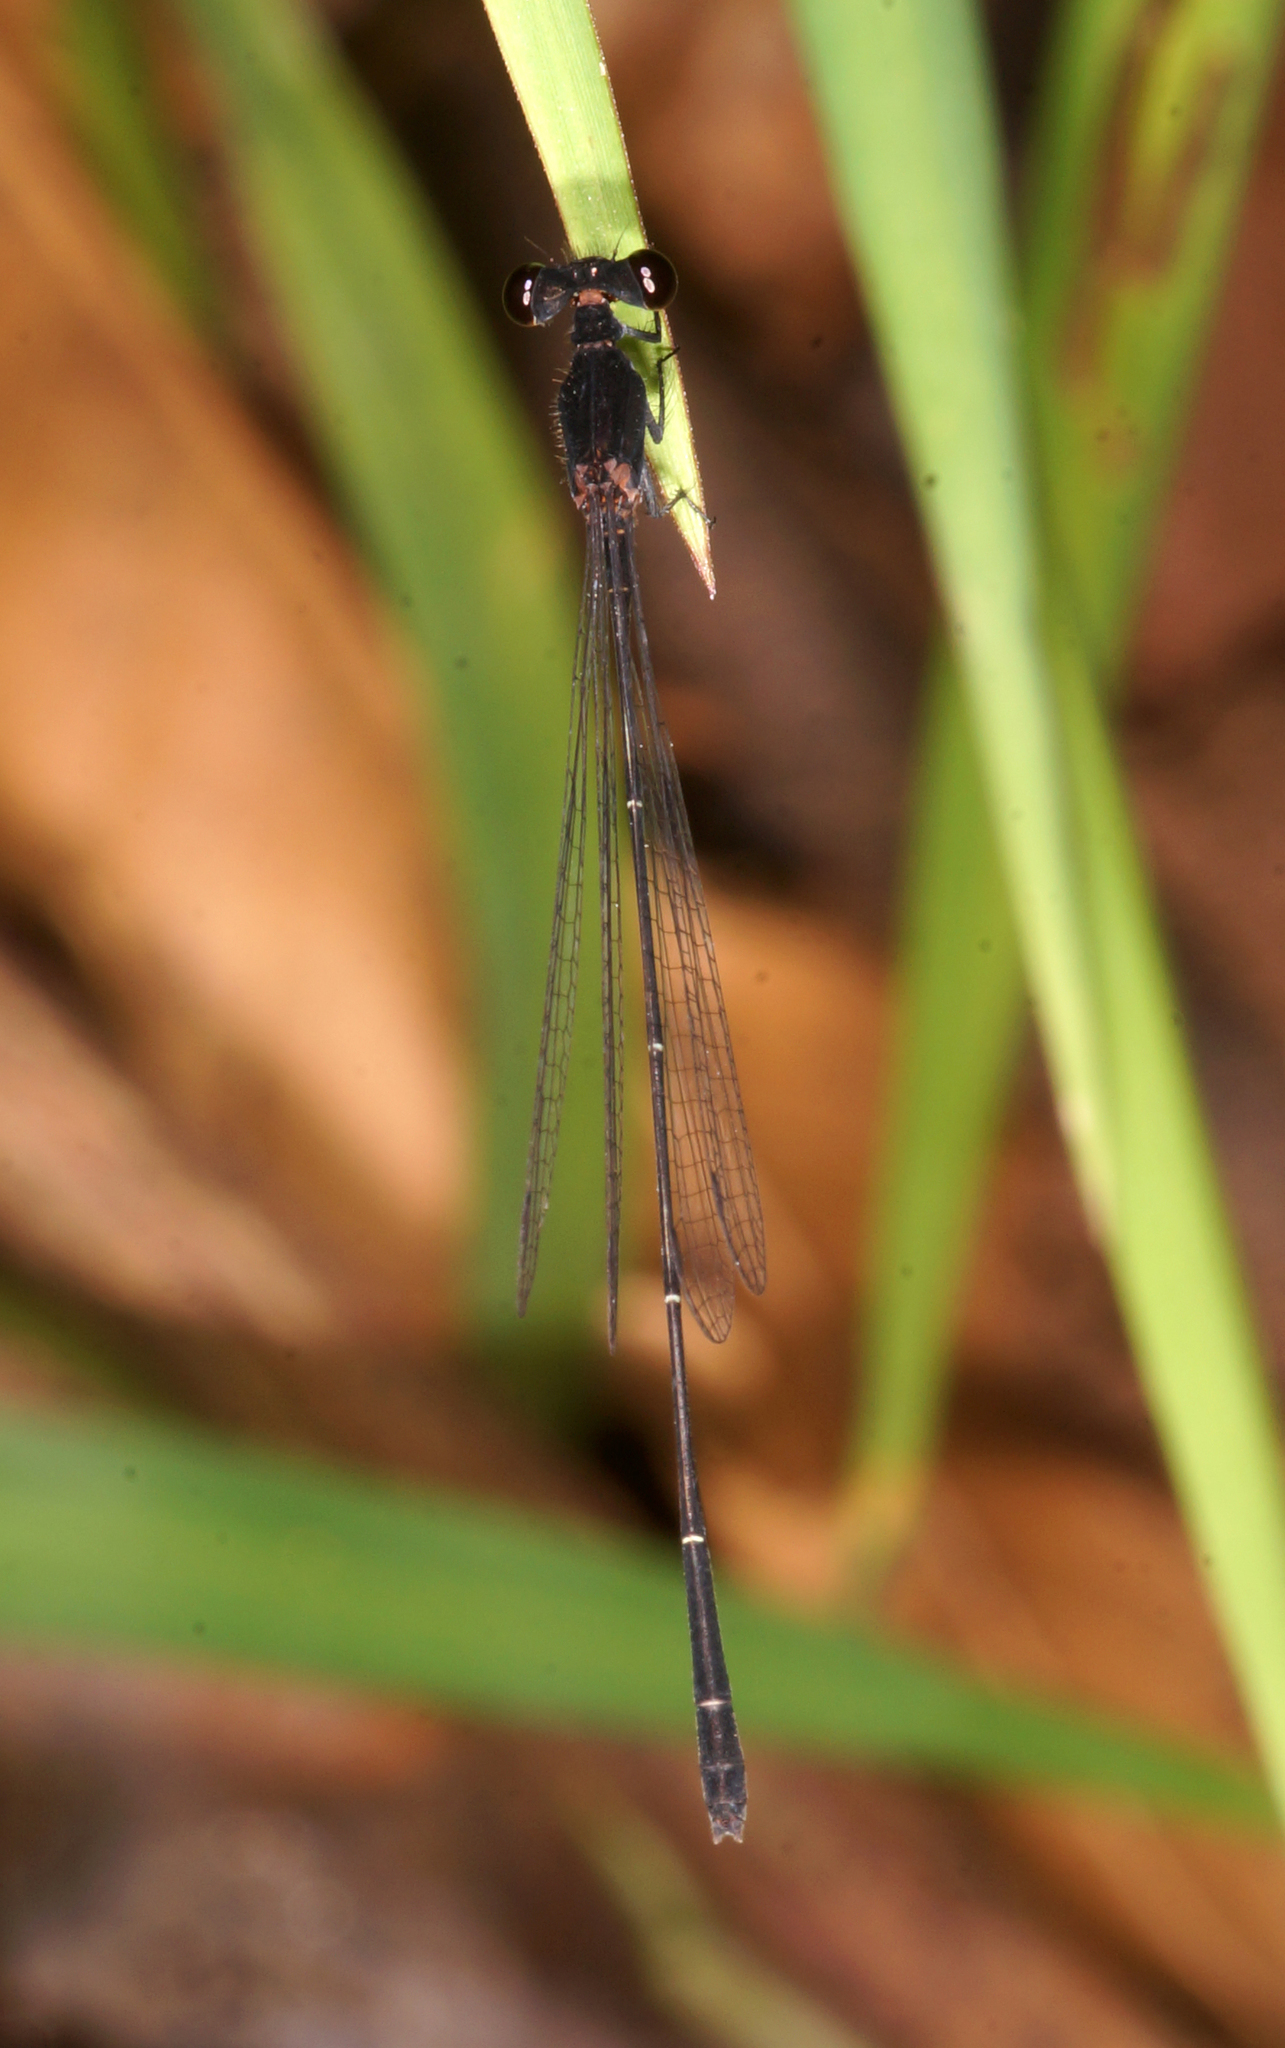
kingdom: Animalia
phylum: Arthropoda
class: Insecta
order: Odonata
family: Platycnemididae
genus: Prodasineura
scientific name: Prodasineura autumnalis
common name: Black threadtail
